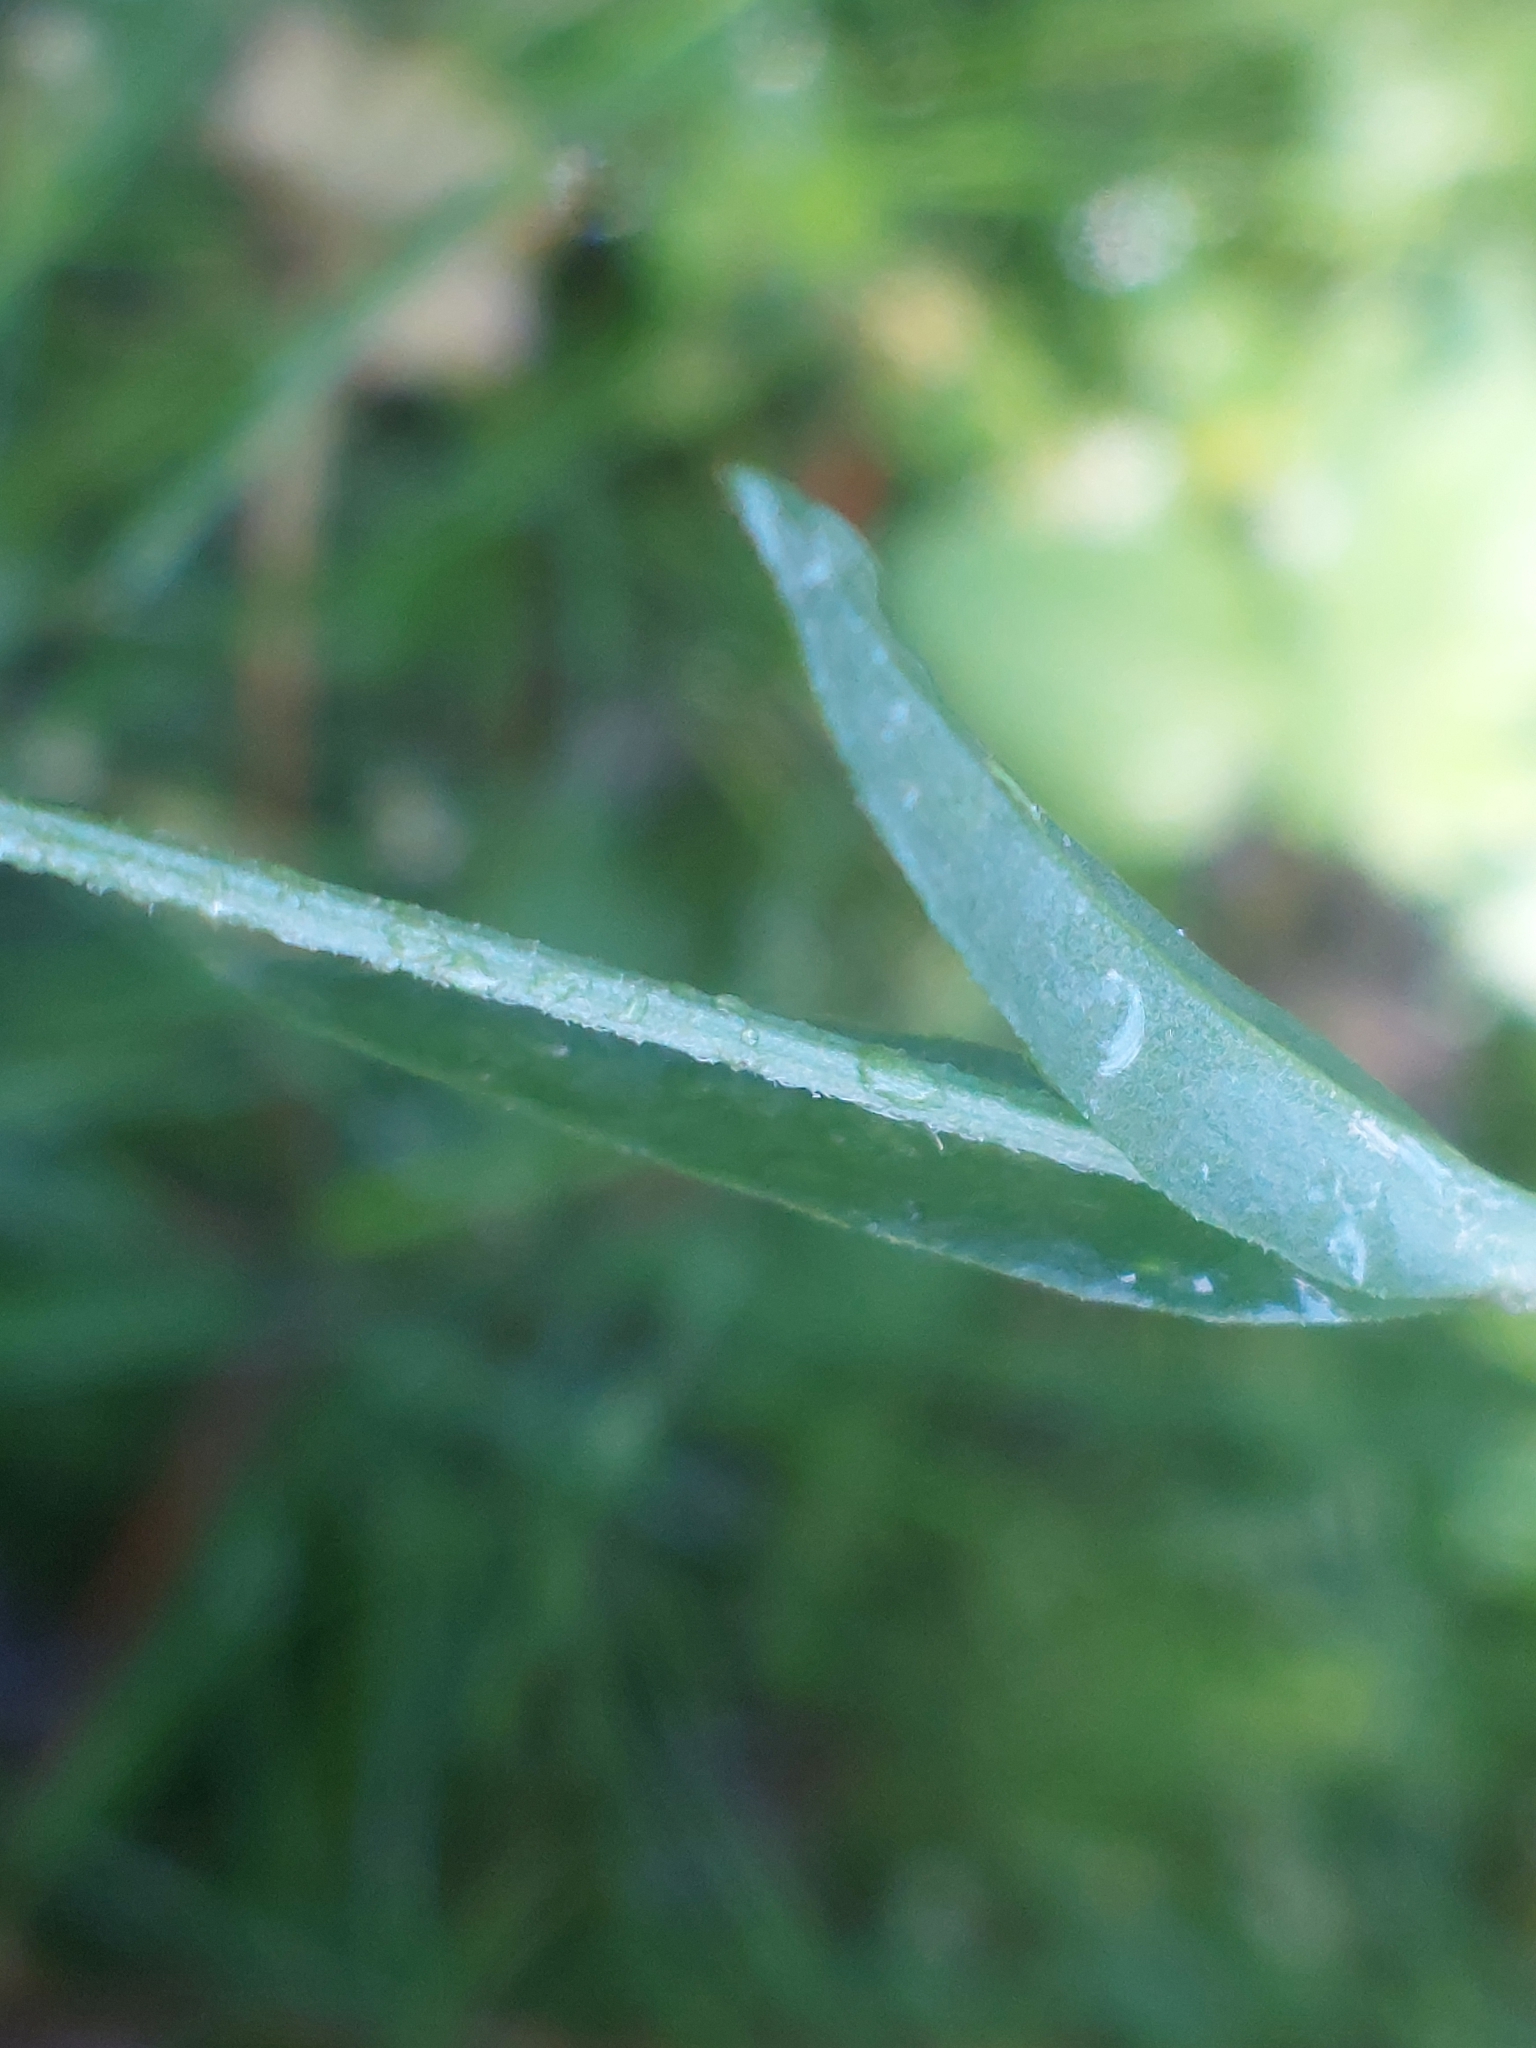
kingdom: Plantae
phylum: Tracheophyta
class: Magnoliopsida
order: Caryophyllales
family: Caryophyllaceae
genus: Silene
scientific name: Silene flos-cuculi
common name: Ragged-robin
